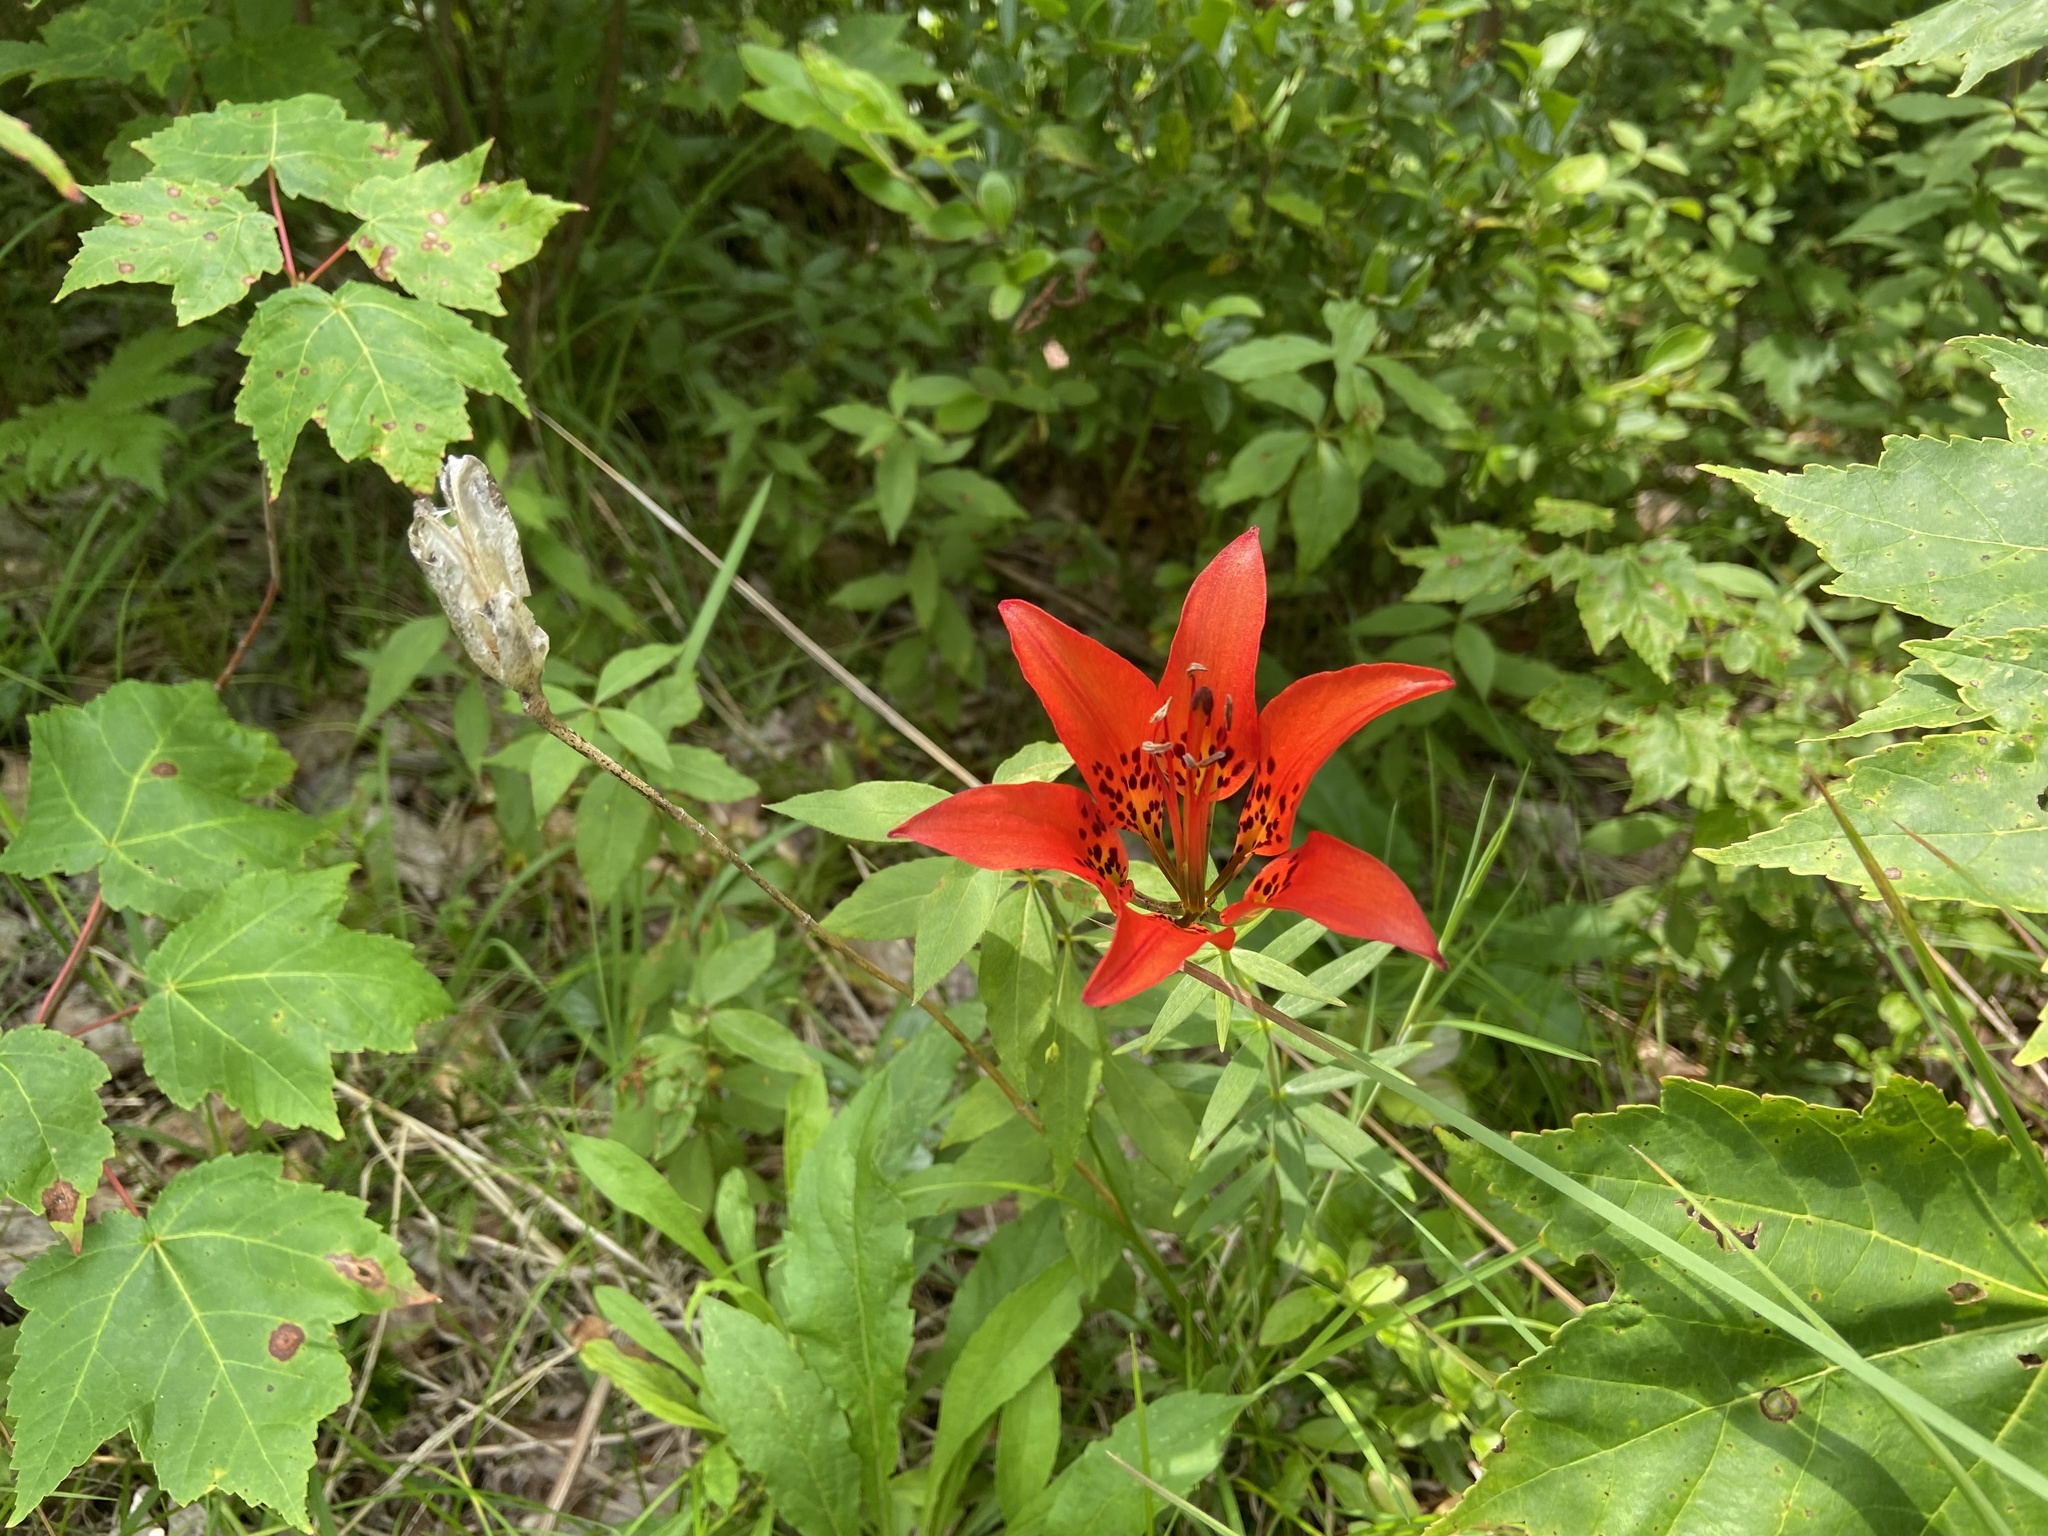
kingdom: Plantae
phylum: Tracheophyta
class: Liliopsida
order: Liliales
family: Liliaceae
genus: Lilium
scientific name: Lilium philadelphicum
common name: Red lily
